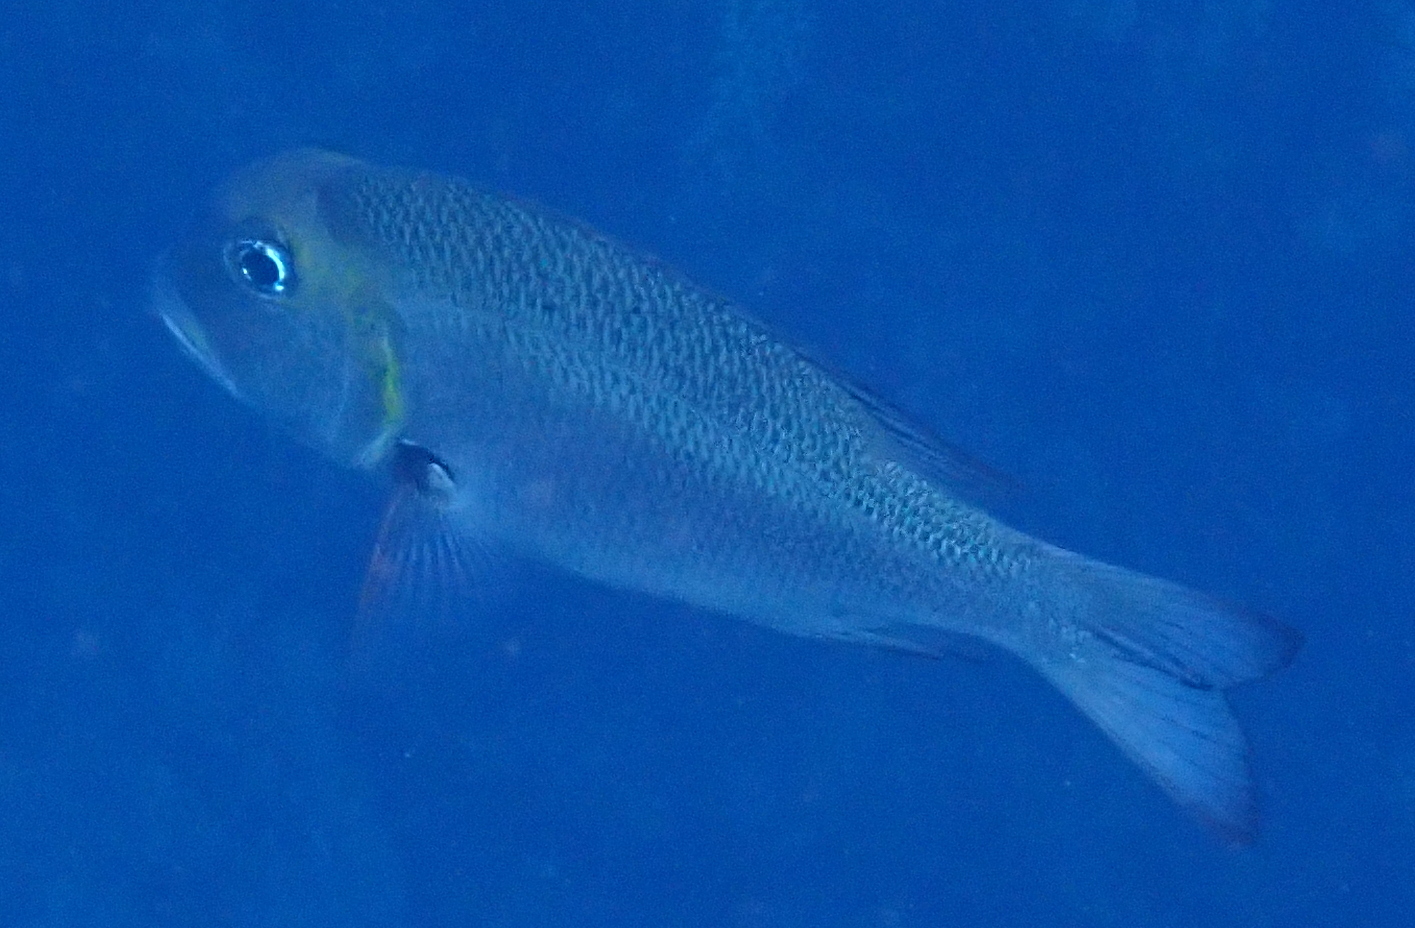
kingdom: Animalia
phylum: Chordata
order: Perciformes
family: Lethrinidae
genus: Monotaxis
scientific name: Monotaxis grandoculis
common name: Bigeye emperor
